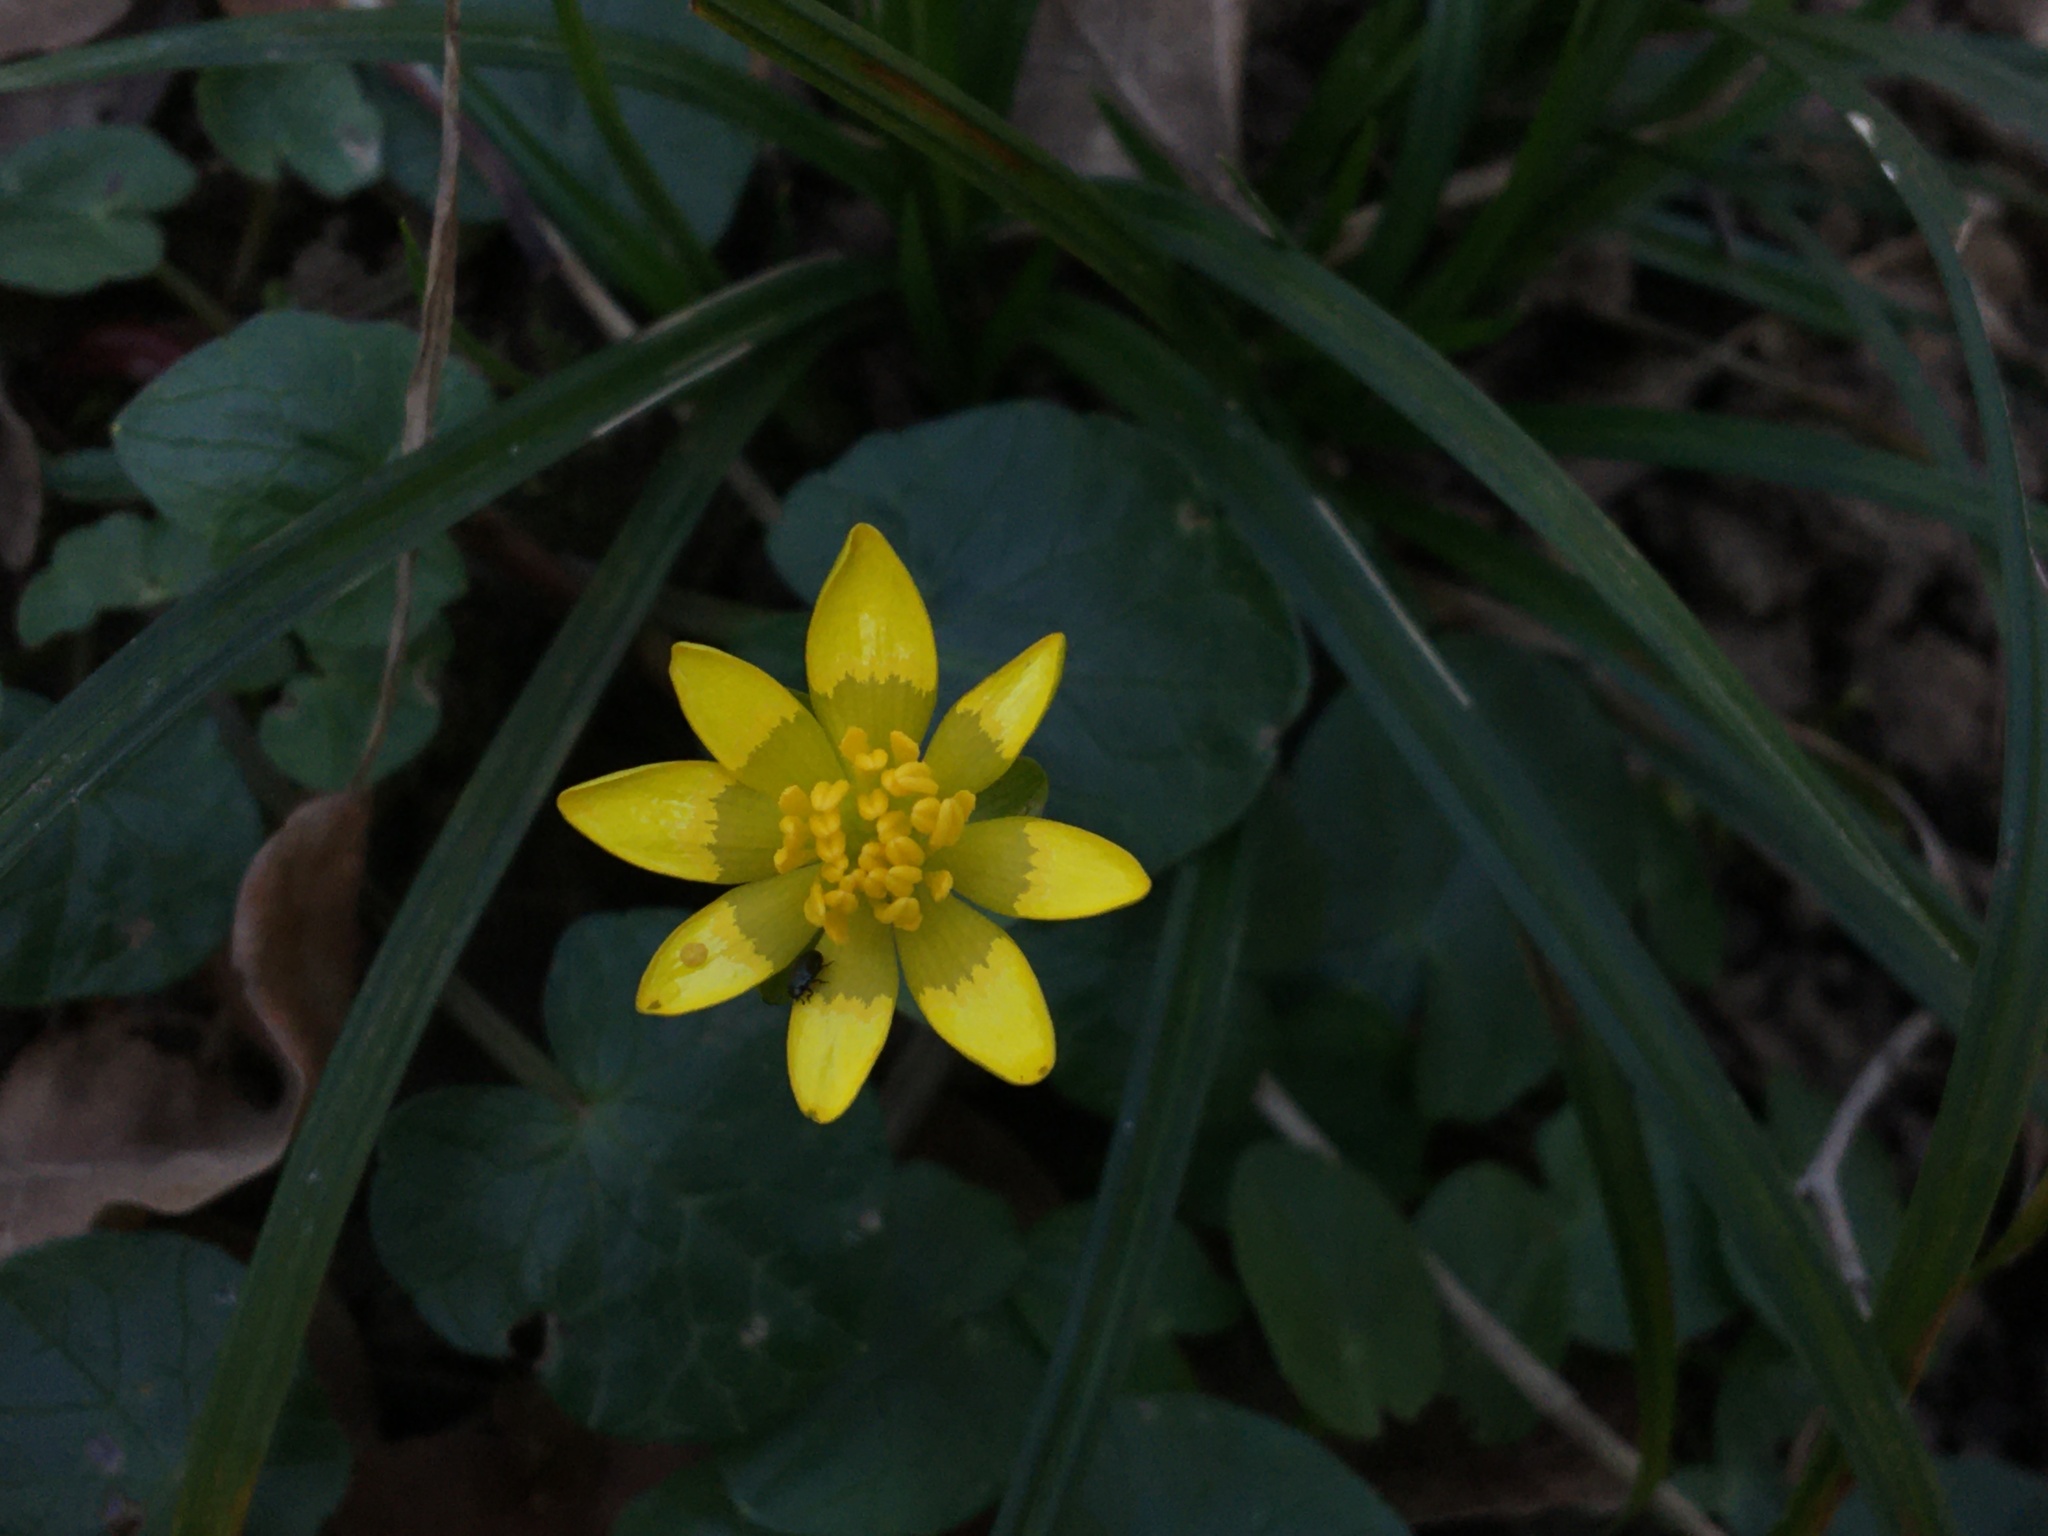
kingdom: Plantae
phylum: Tracheophyta
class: Magnoliopsida
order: Ranunculales
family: Ranunculaceae
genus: Ficaria
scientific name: Ficaria verna
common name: Lesser celandine
